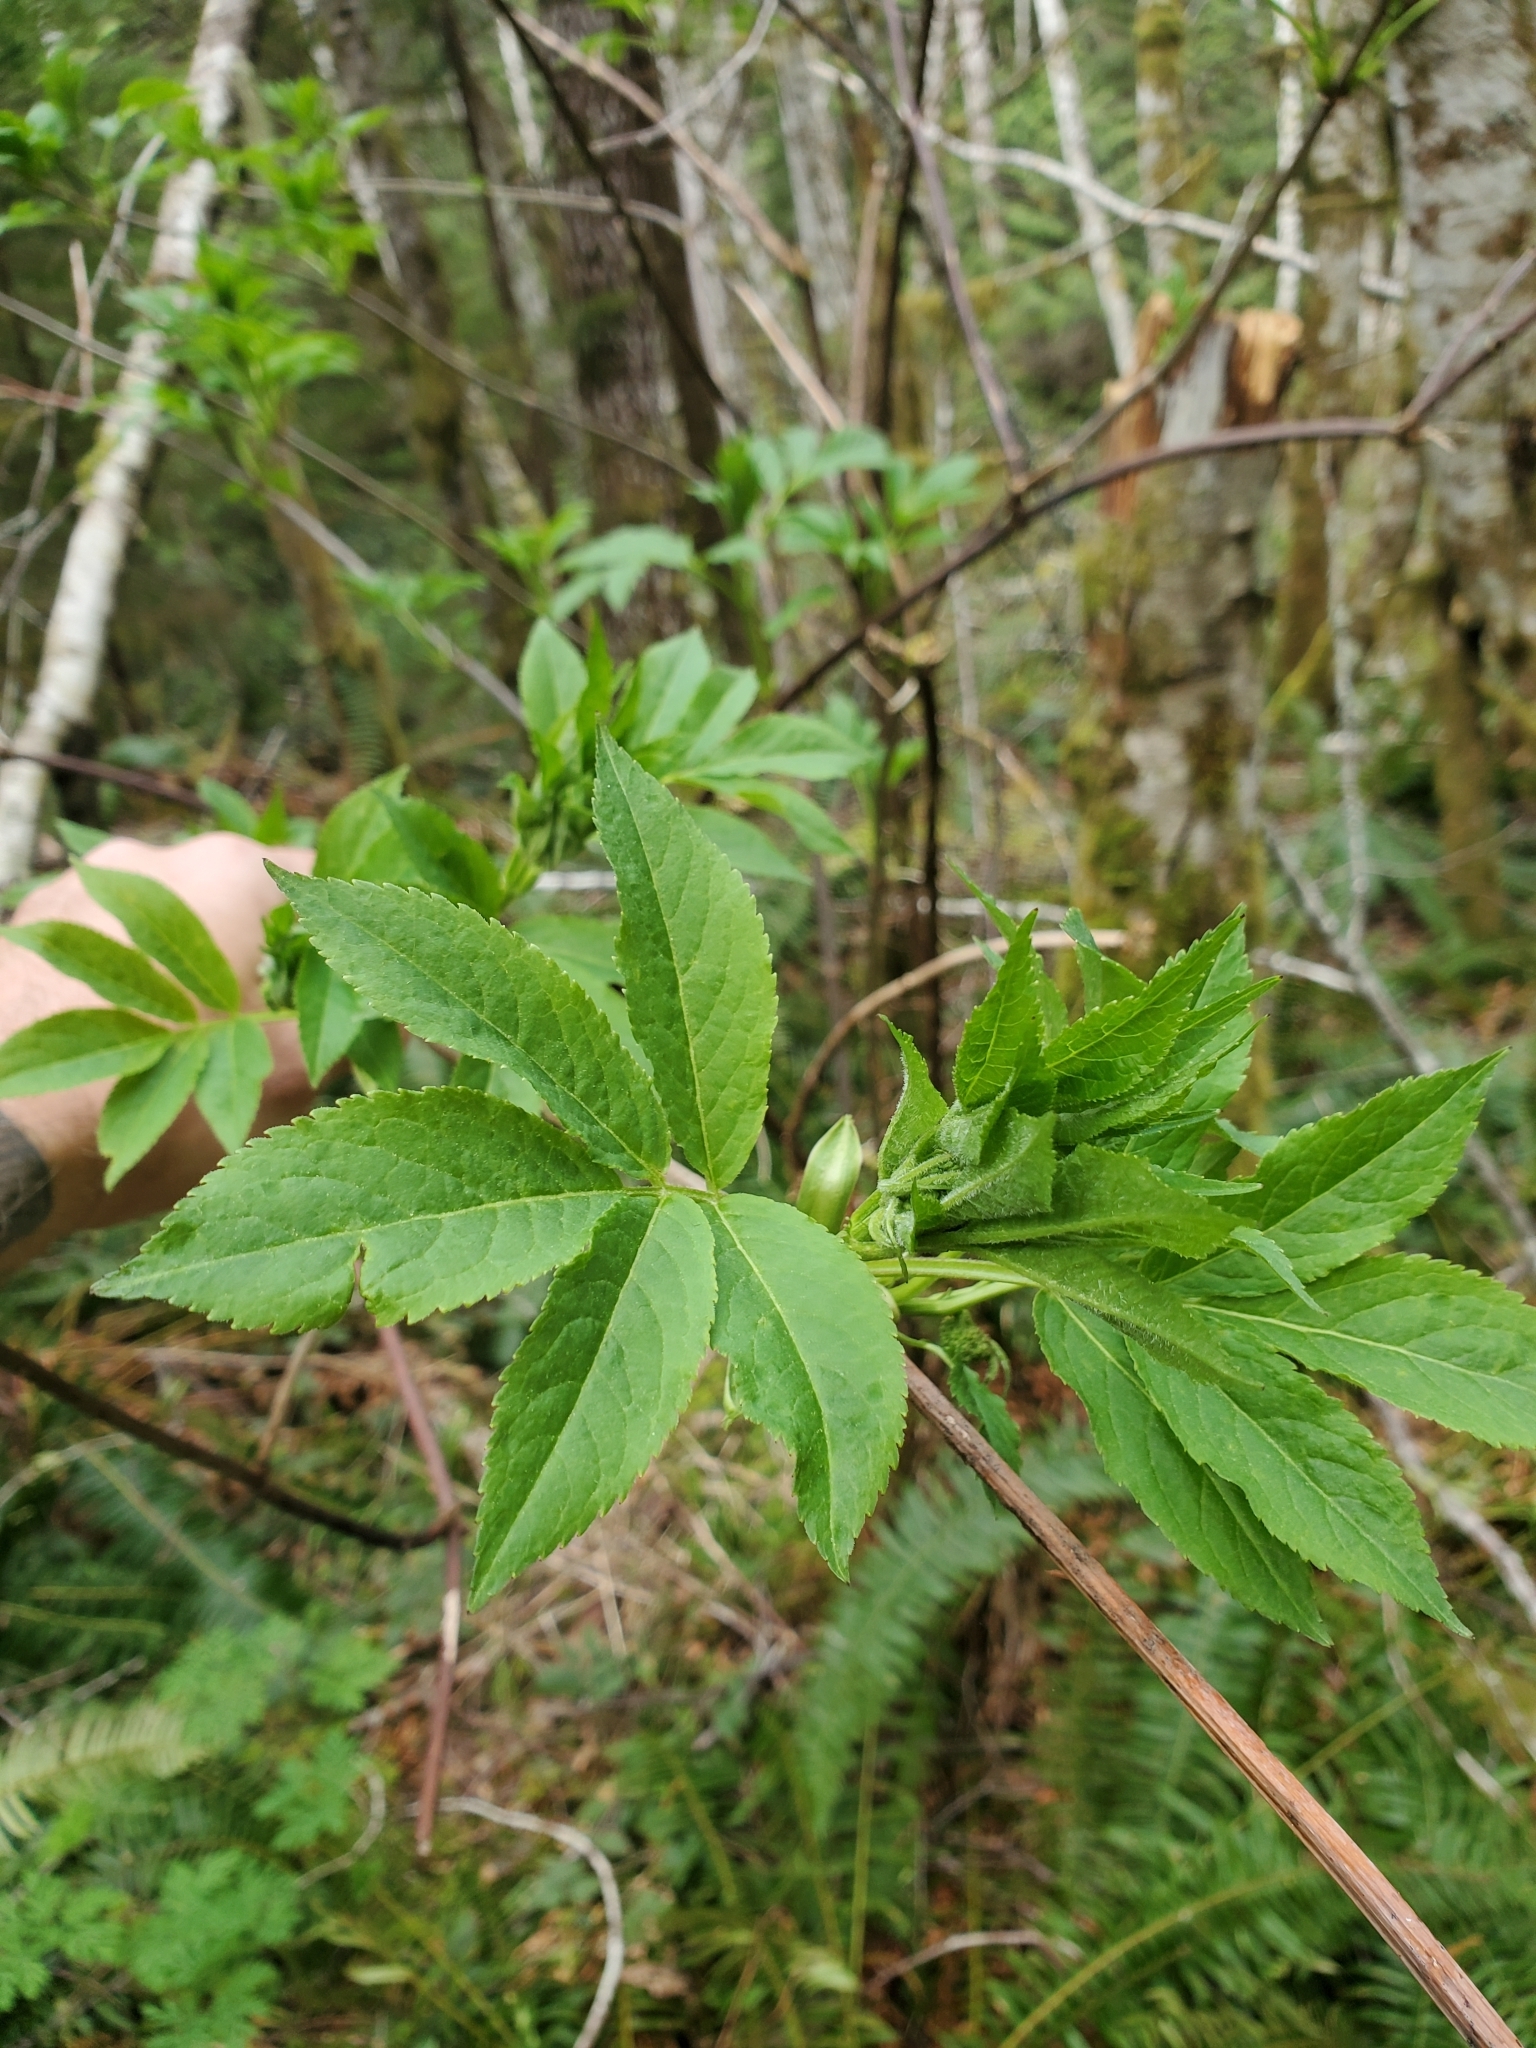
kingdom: Plantae
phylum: Tracheophyta
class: Magnoliopsida
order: Dipsacales
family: Viburnaceae
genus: Sambucus
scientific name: Sambucus racemosa
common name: Red-berried elder
